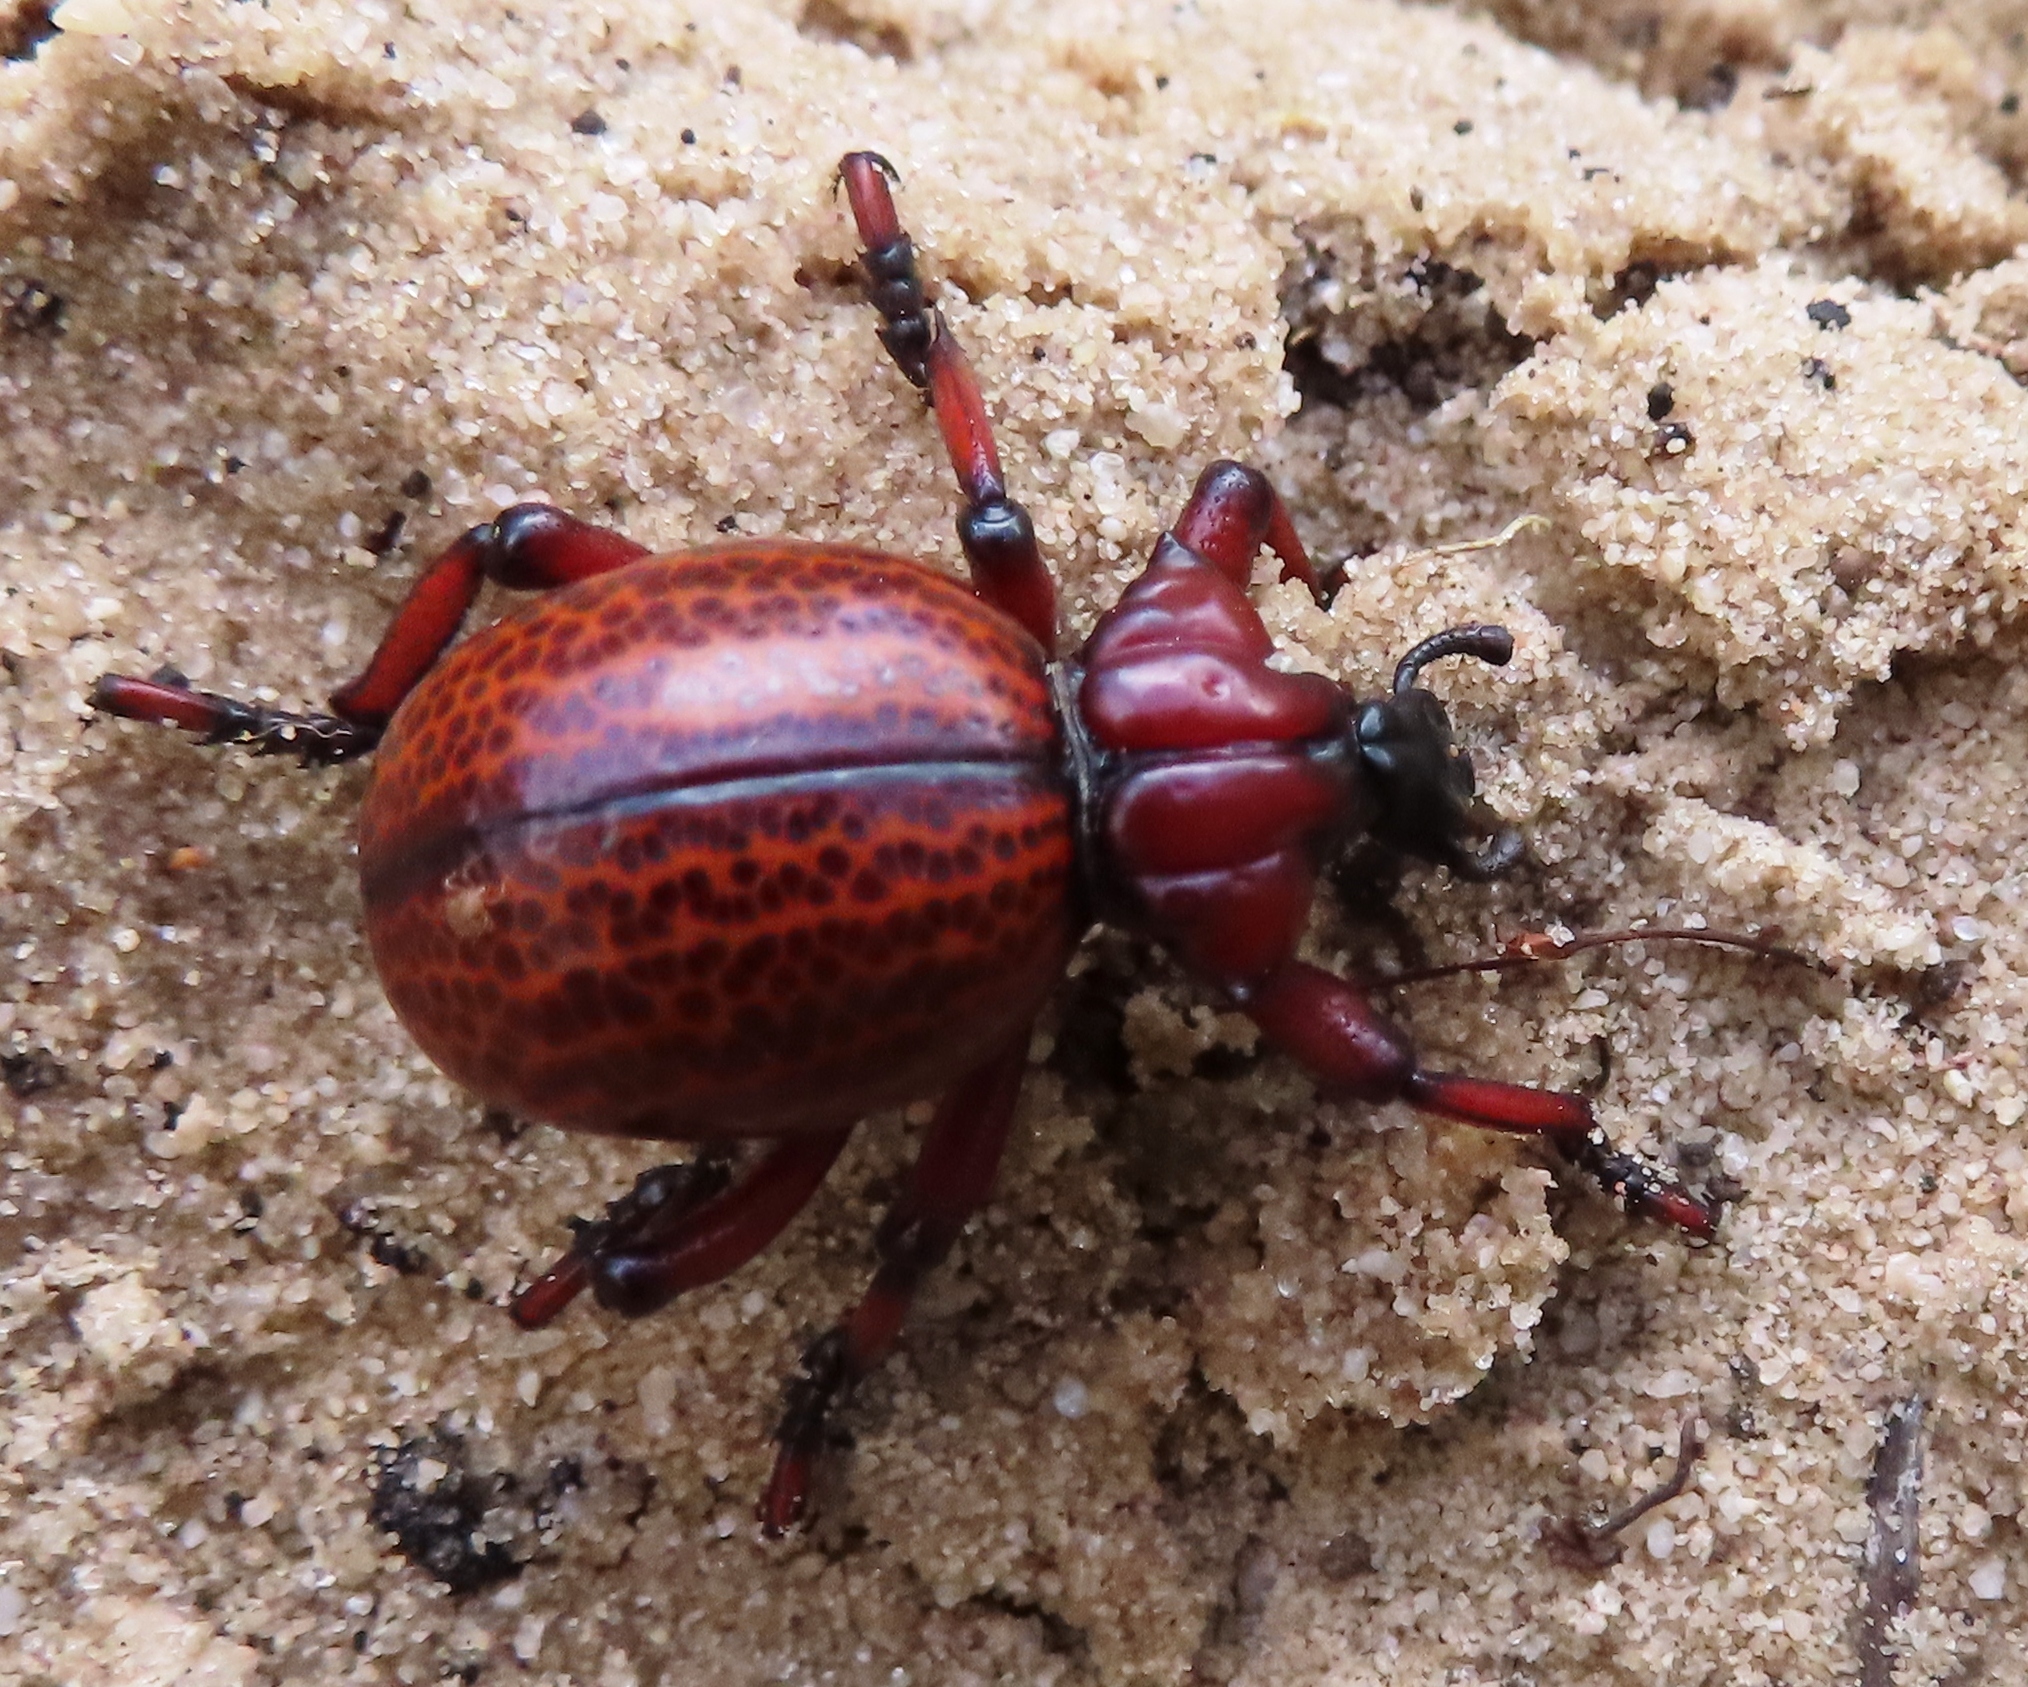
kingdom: Animalia
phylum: Arthropoda
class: Insecta
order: Coleoptera
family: Brachyceridae
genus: Brachycerus
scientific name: Brachycerus obesus
